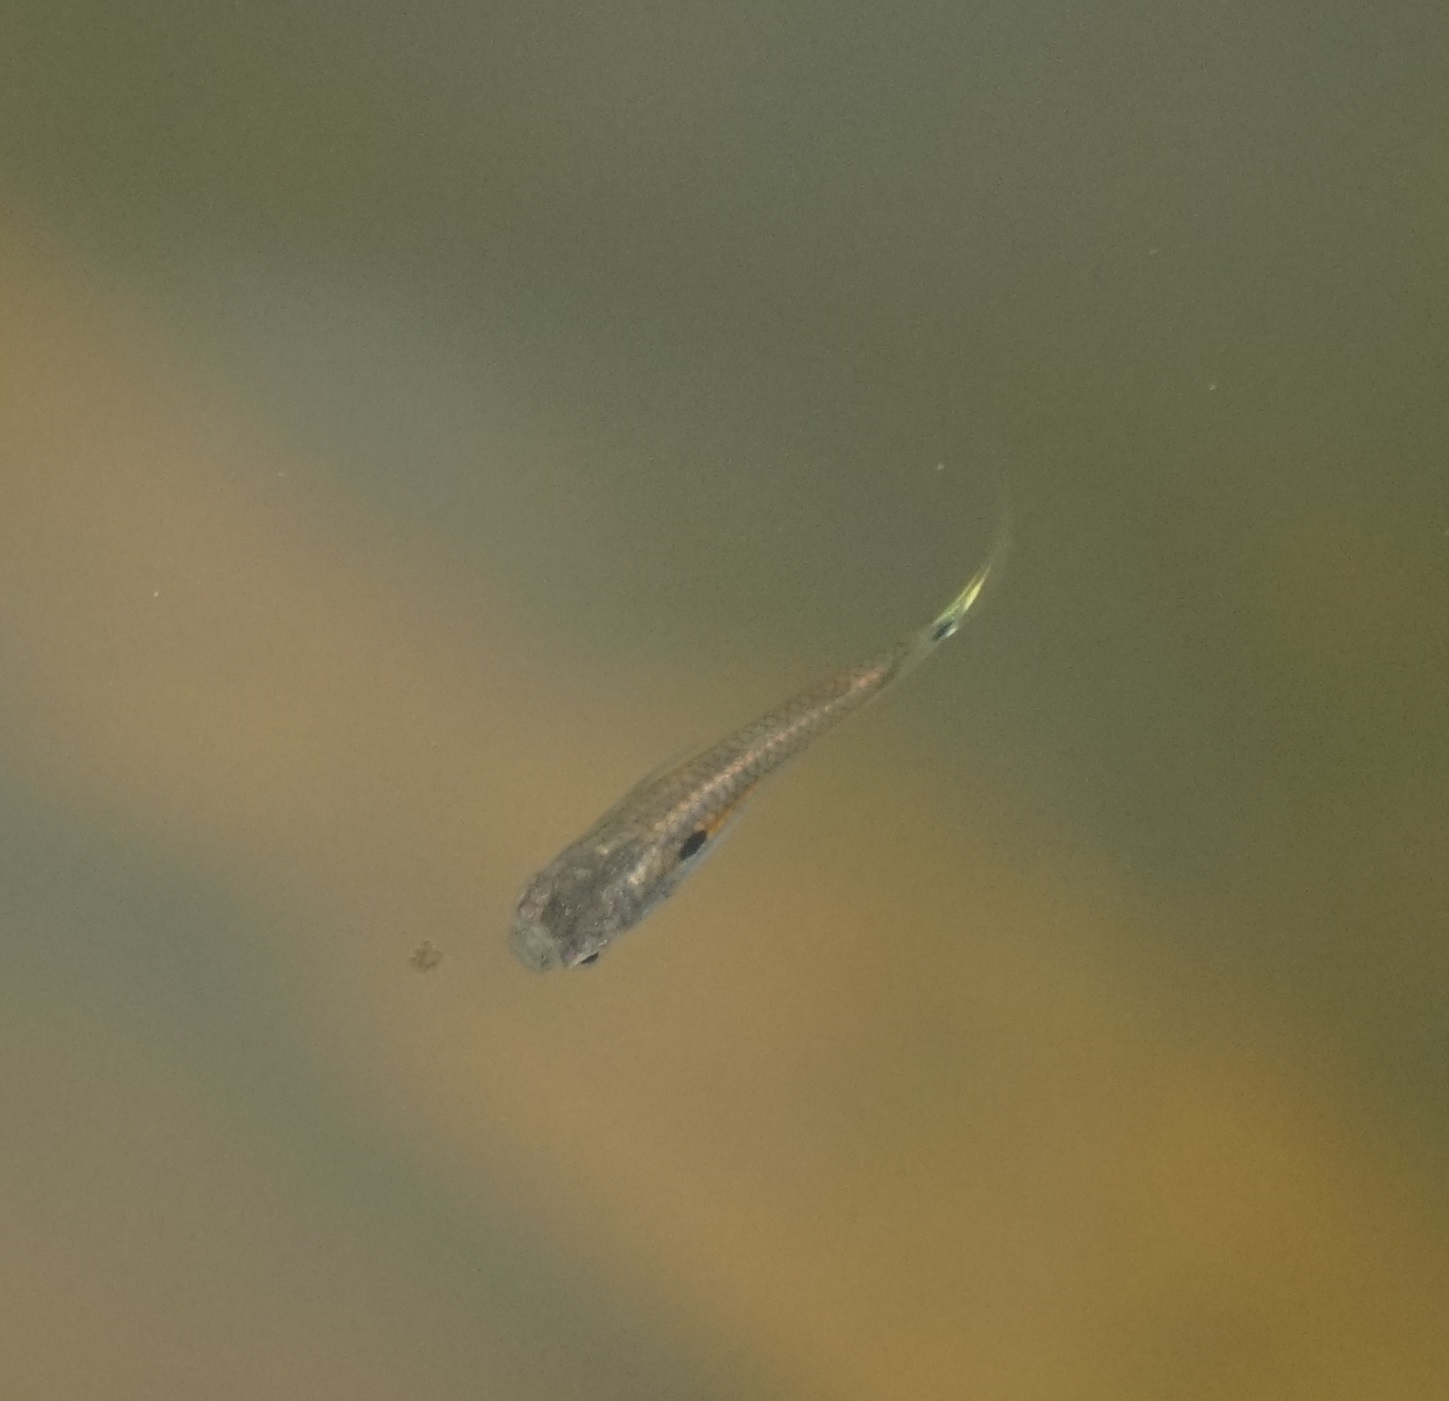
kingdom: Animalia
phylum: Chordata
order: Cyprinodontiformes
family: Poeciliidae
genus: Poecilia
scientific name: Poecilia reticulata
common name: Guppy
